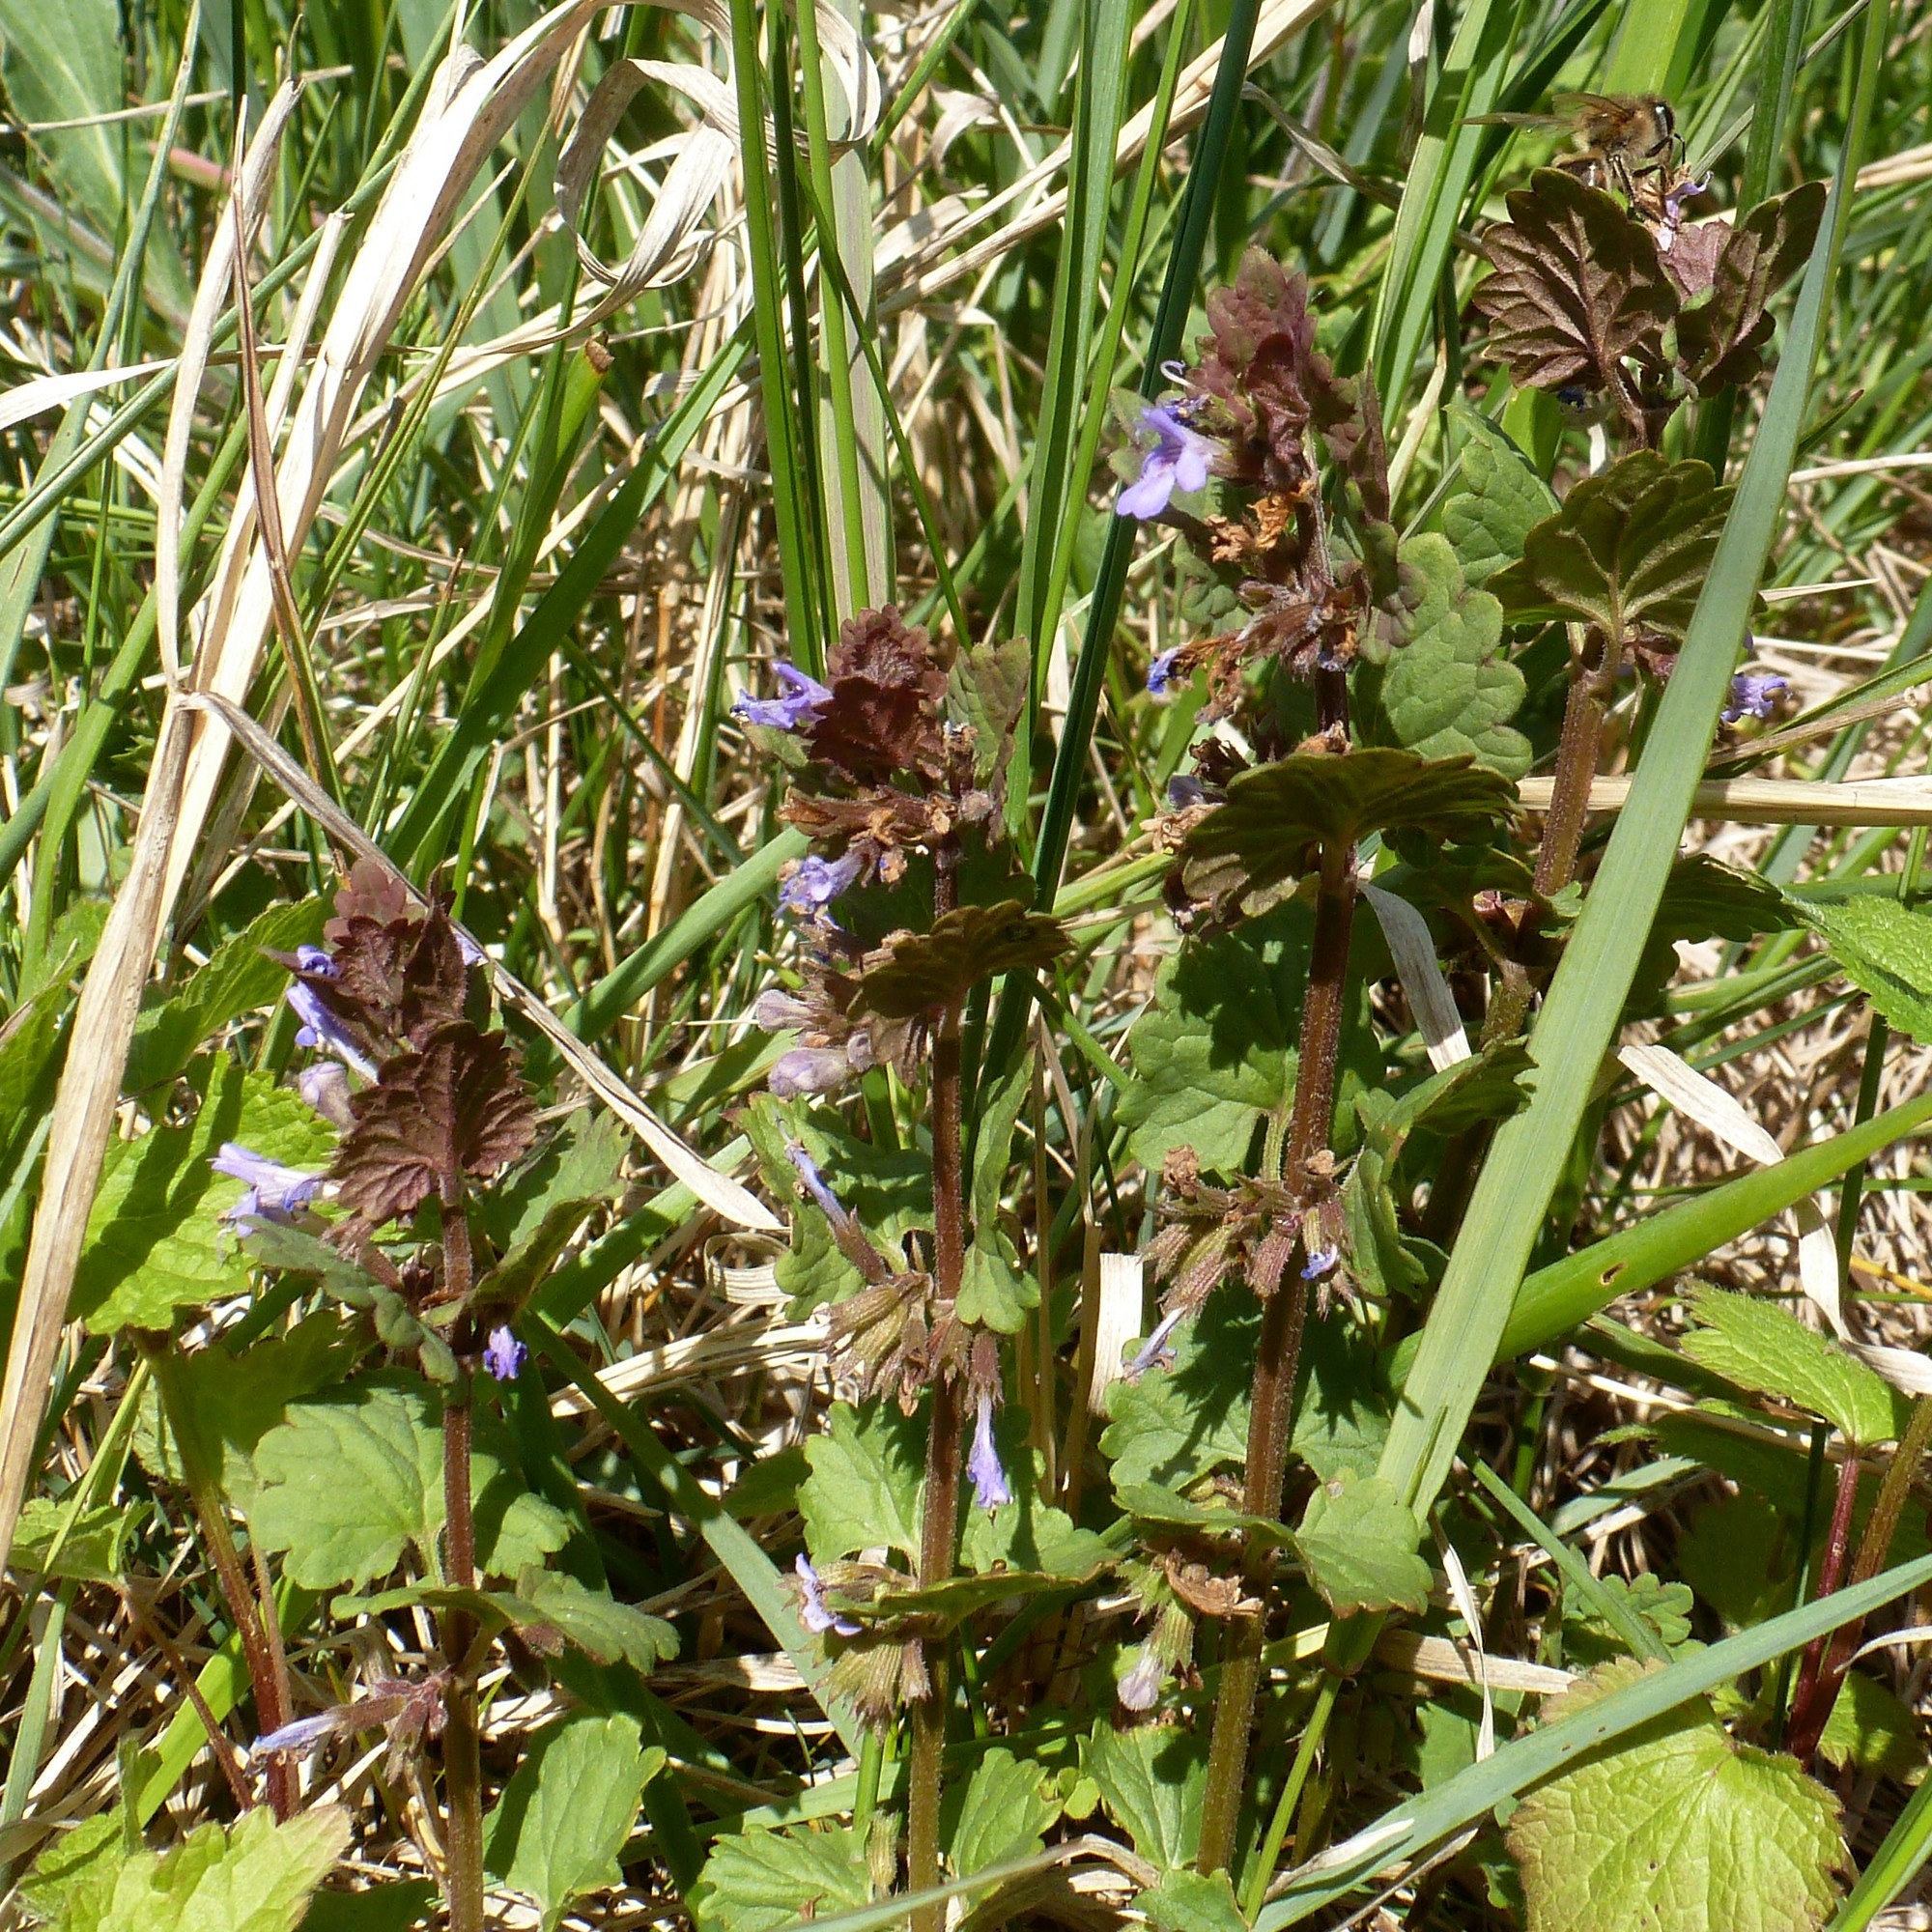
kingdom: Plantae
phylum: Tracheophyta
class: Magnoliopsida
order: Lamiales
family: Lamiaceae
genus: Glechoma
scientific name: Glechoma hederacea
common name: Ground ivy
